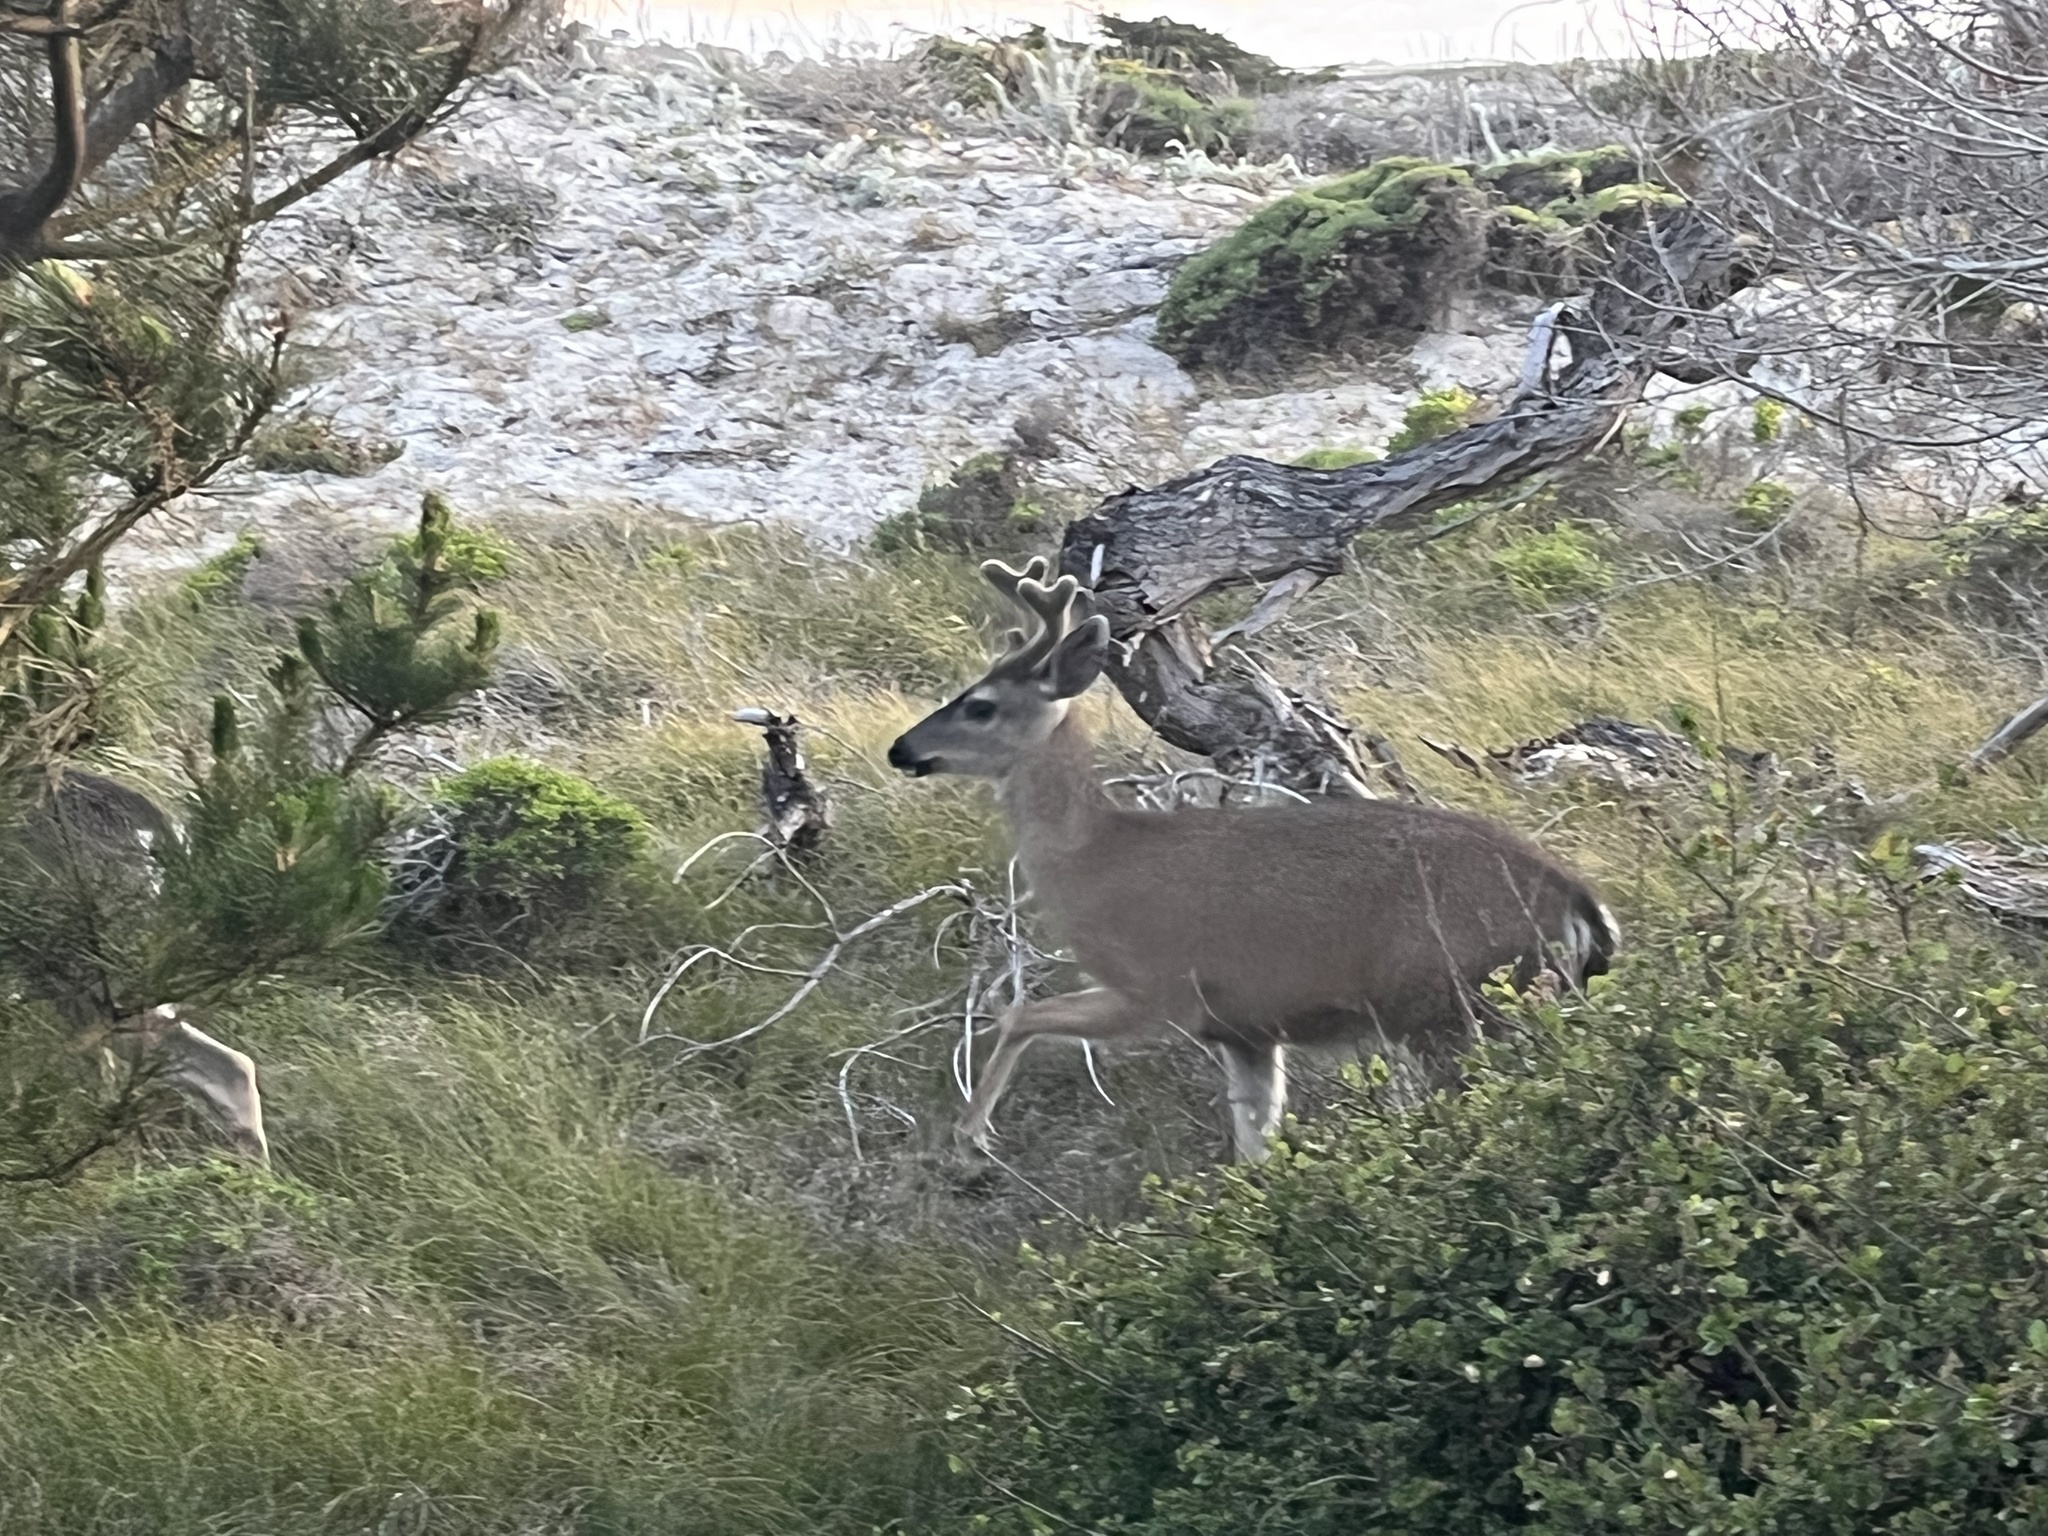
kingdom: Animalia
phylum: Chordata
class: Mammalia
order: Artiodactyla
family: Cervidae
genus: Odocoileus
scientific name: Odocoileus hemionus
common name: Mule deer
